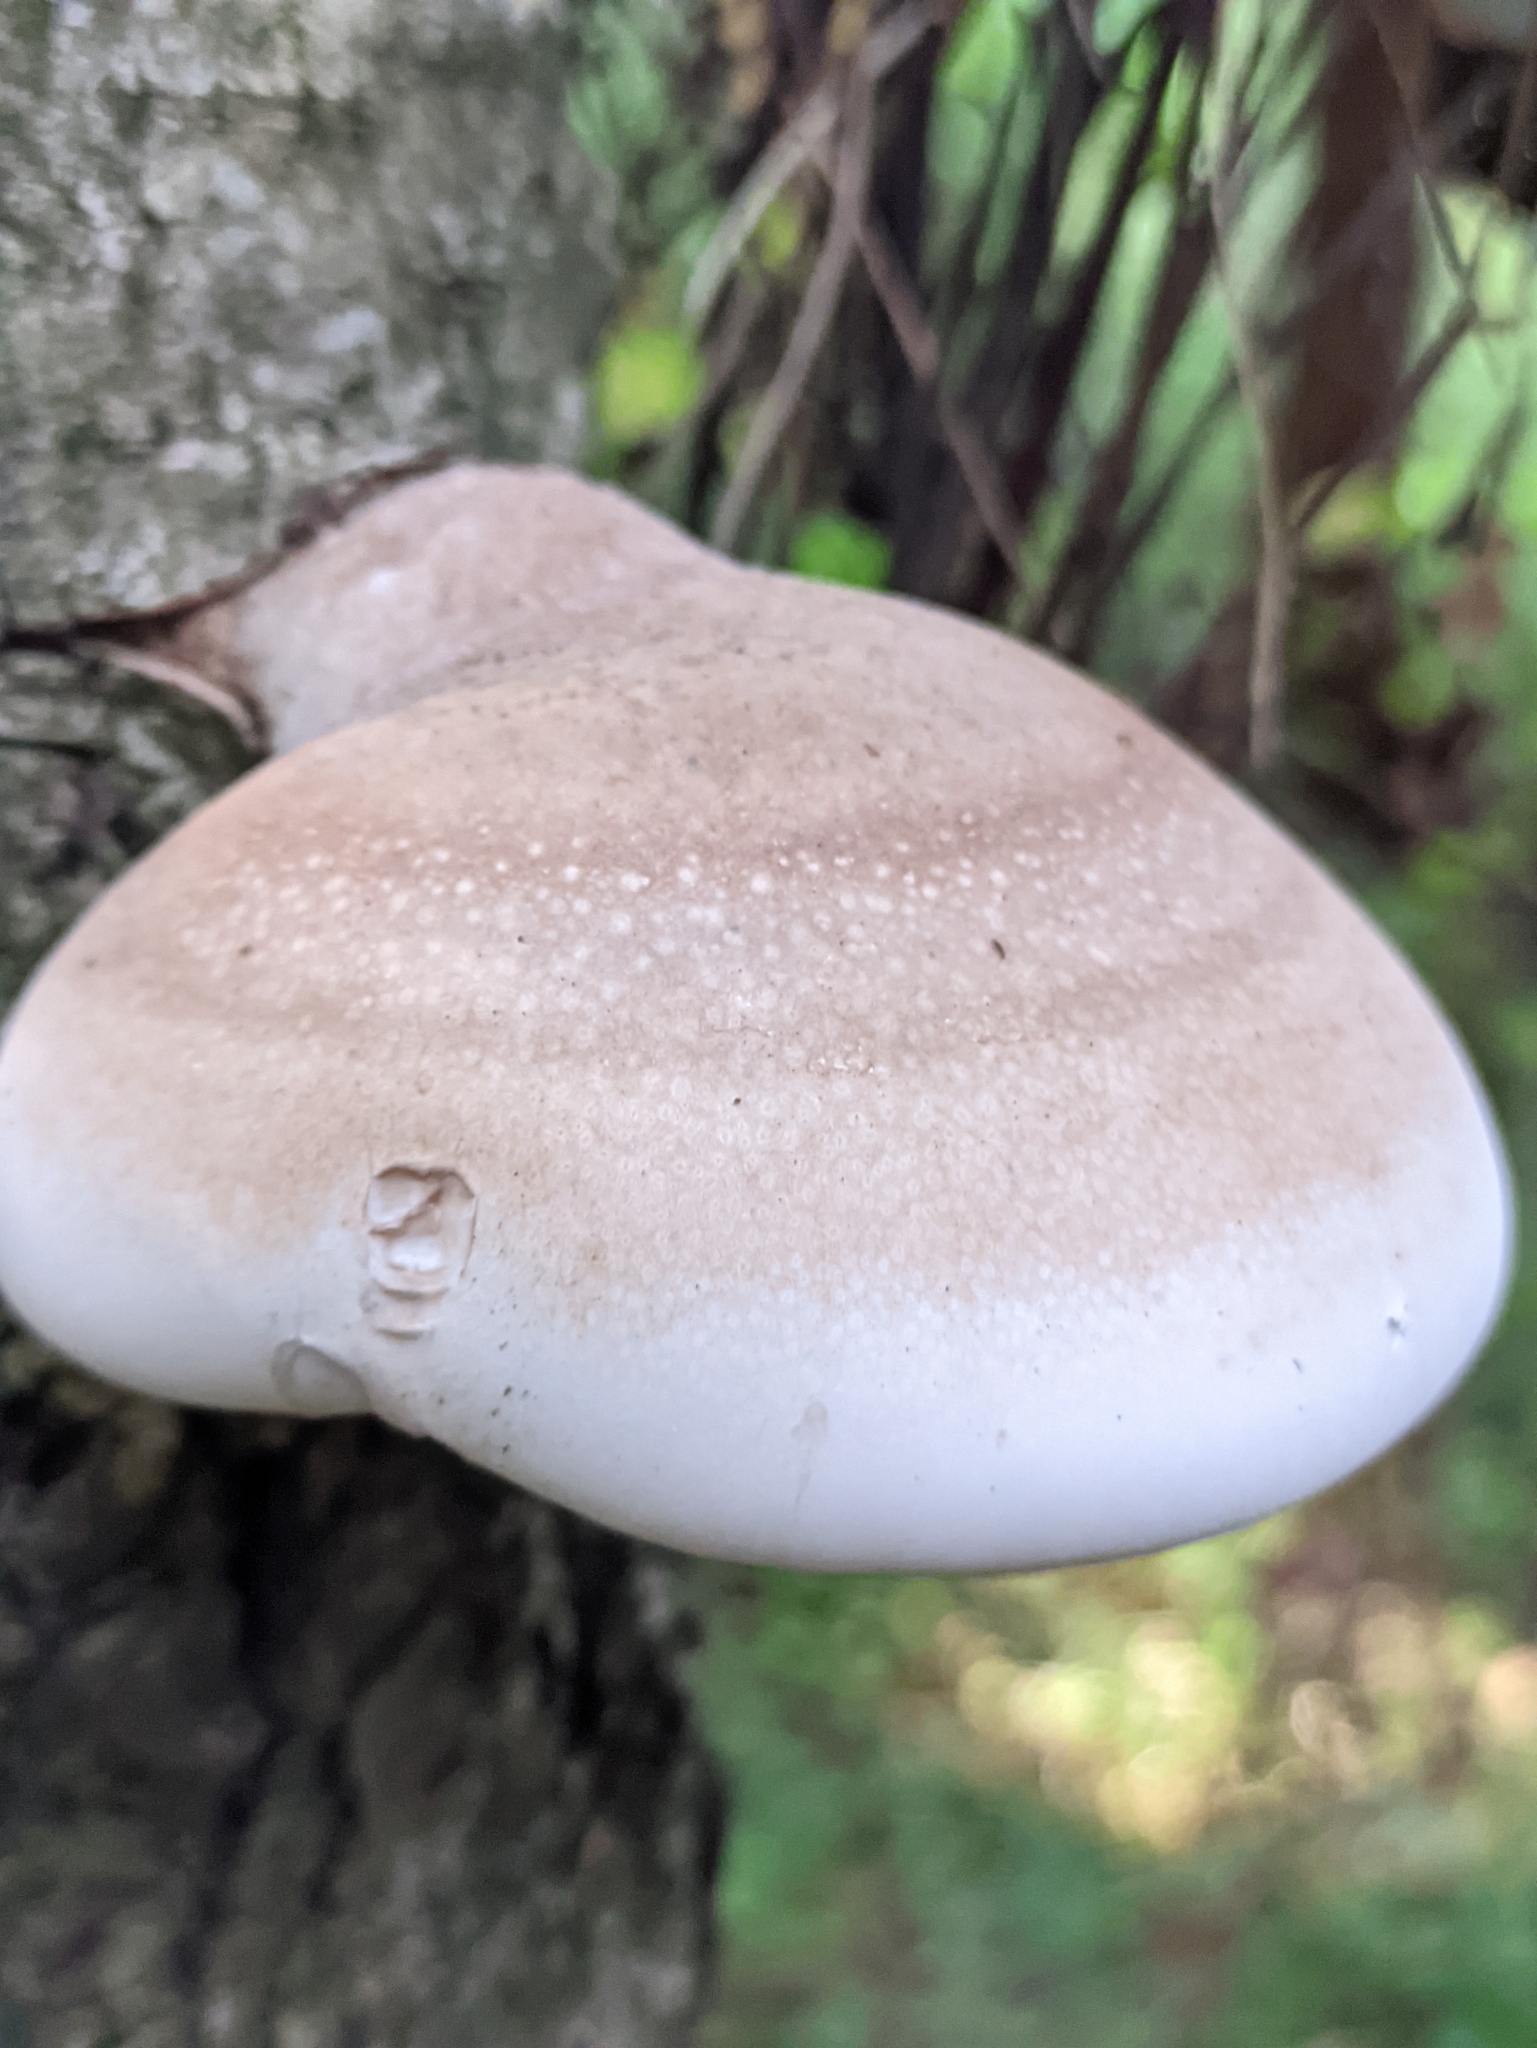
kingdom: Fungi
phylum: Basidiomycota
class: Agaricomycetes
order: Polyporales
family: Fomitopsidaceae
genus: Fomitopsis
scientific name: Fomitopsis betulina
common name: Birch polypore
